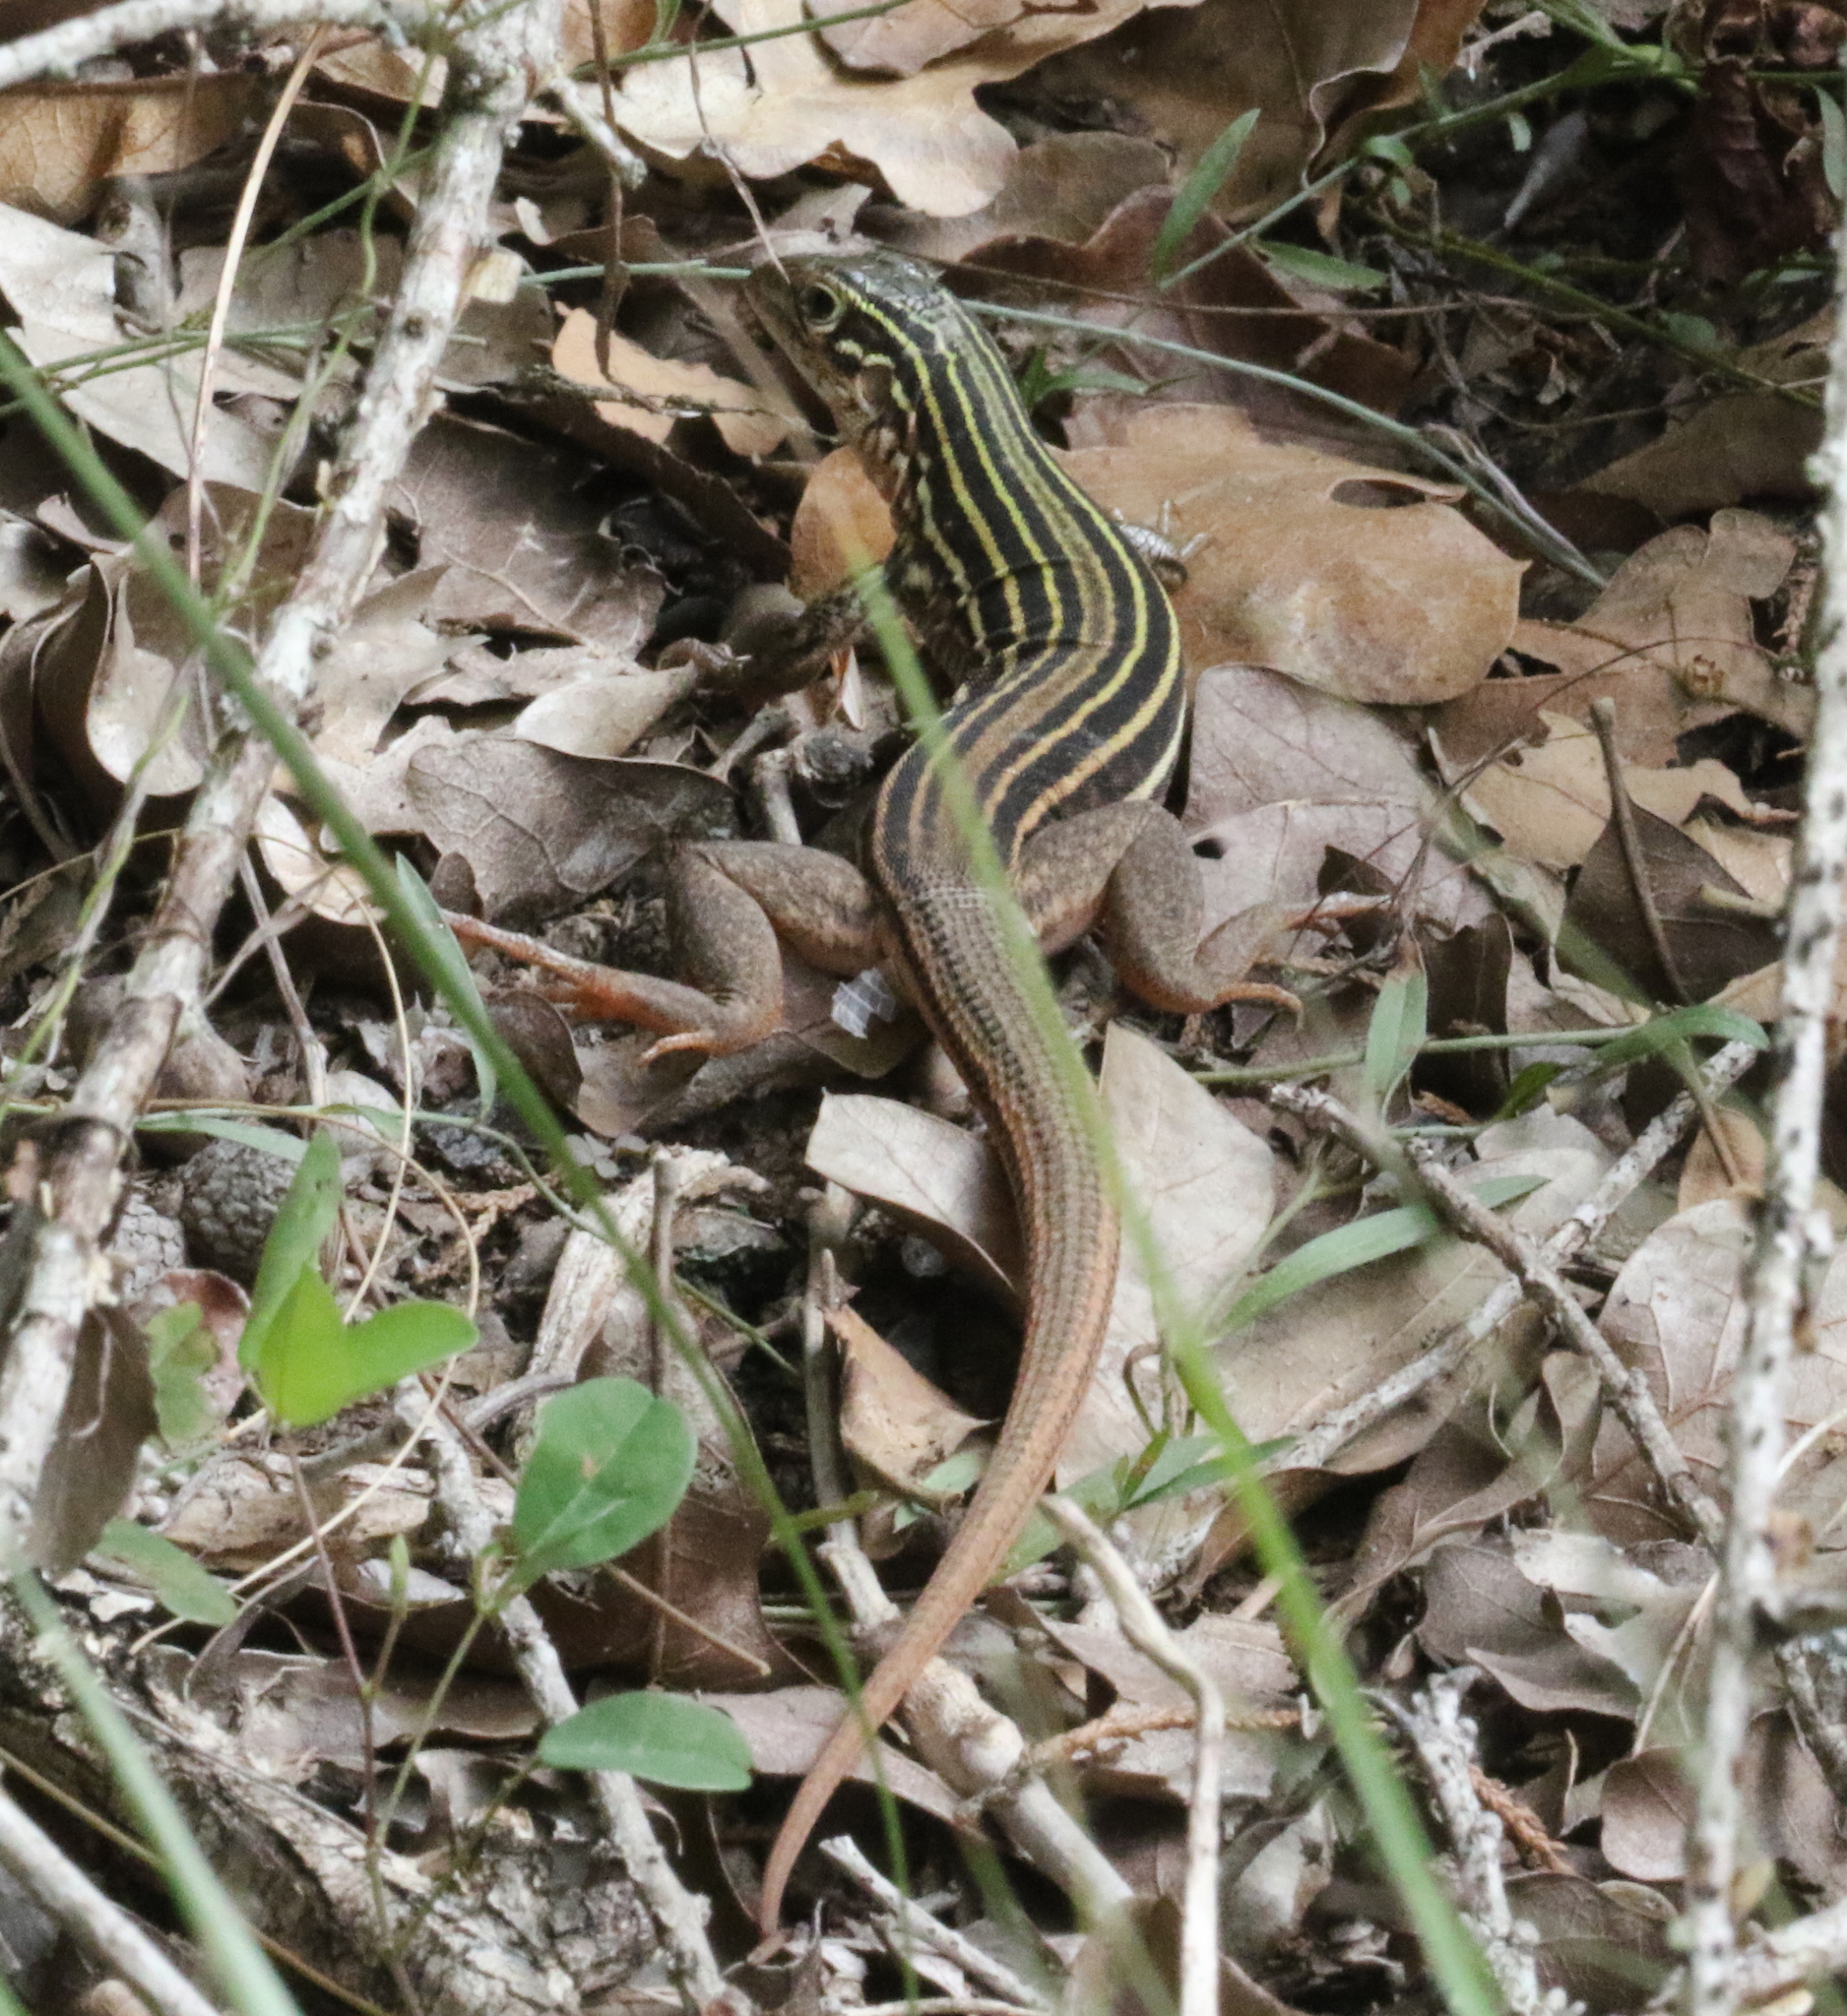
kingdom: Animalia
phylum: Chordata
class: Squamata
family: Teiidae
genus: Aspidoscelis
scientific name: Aspidoscelis gularis
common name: Eastern spotted whiptail
